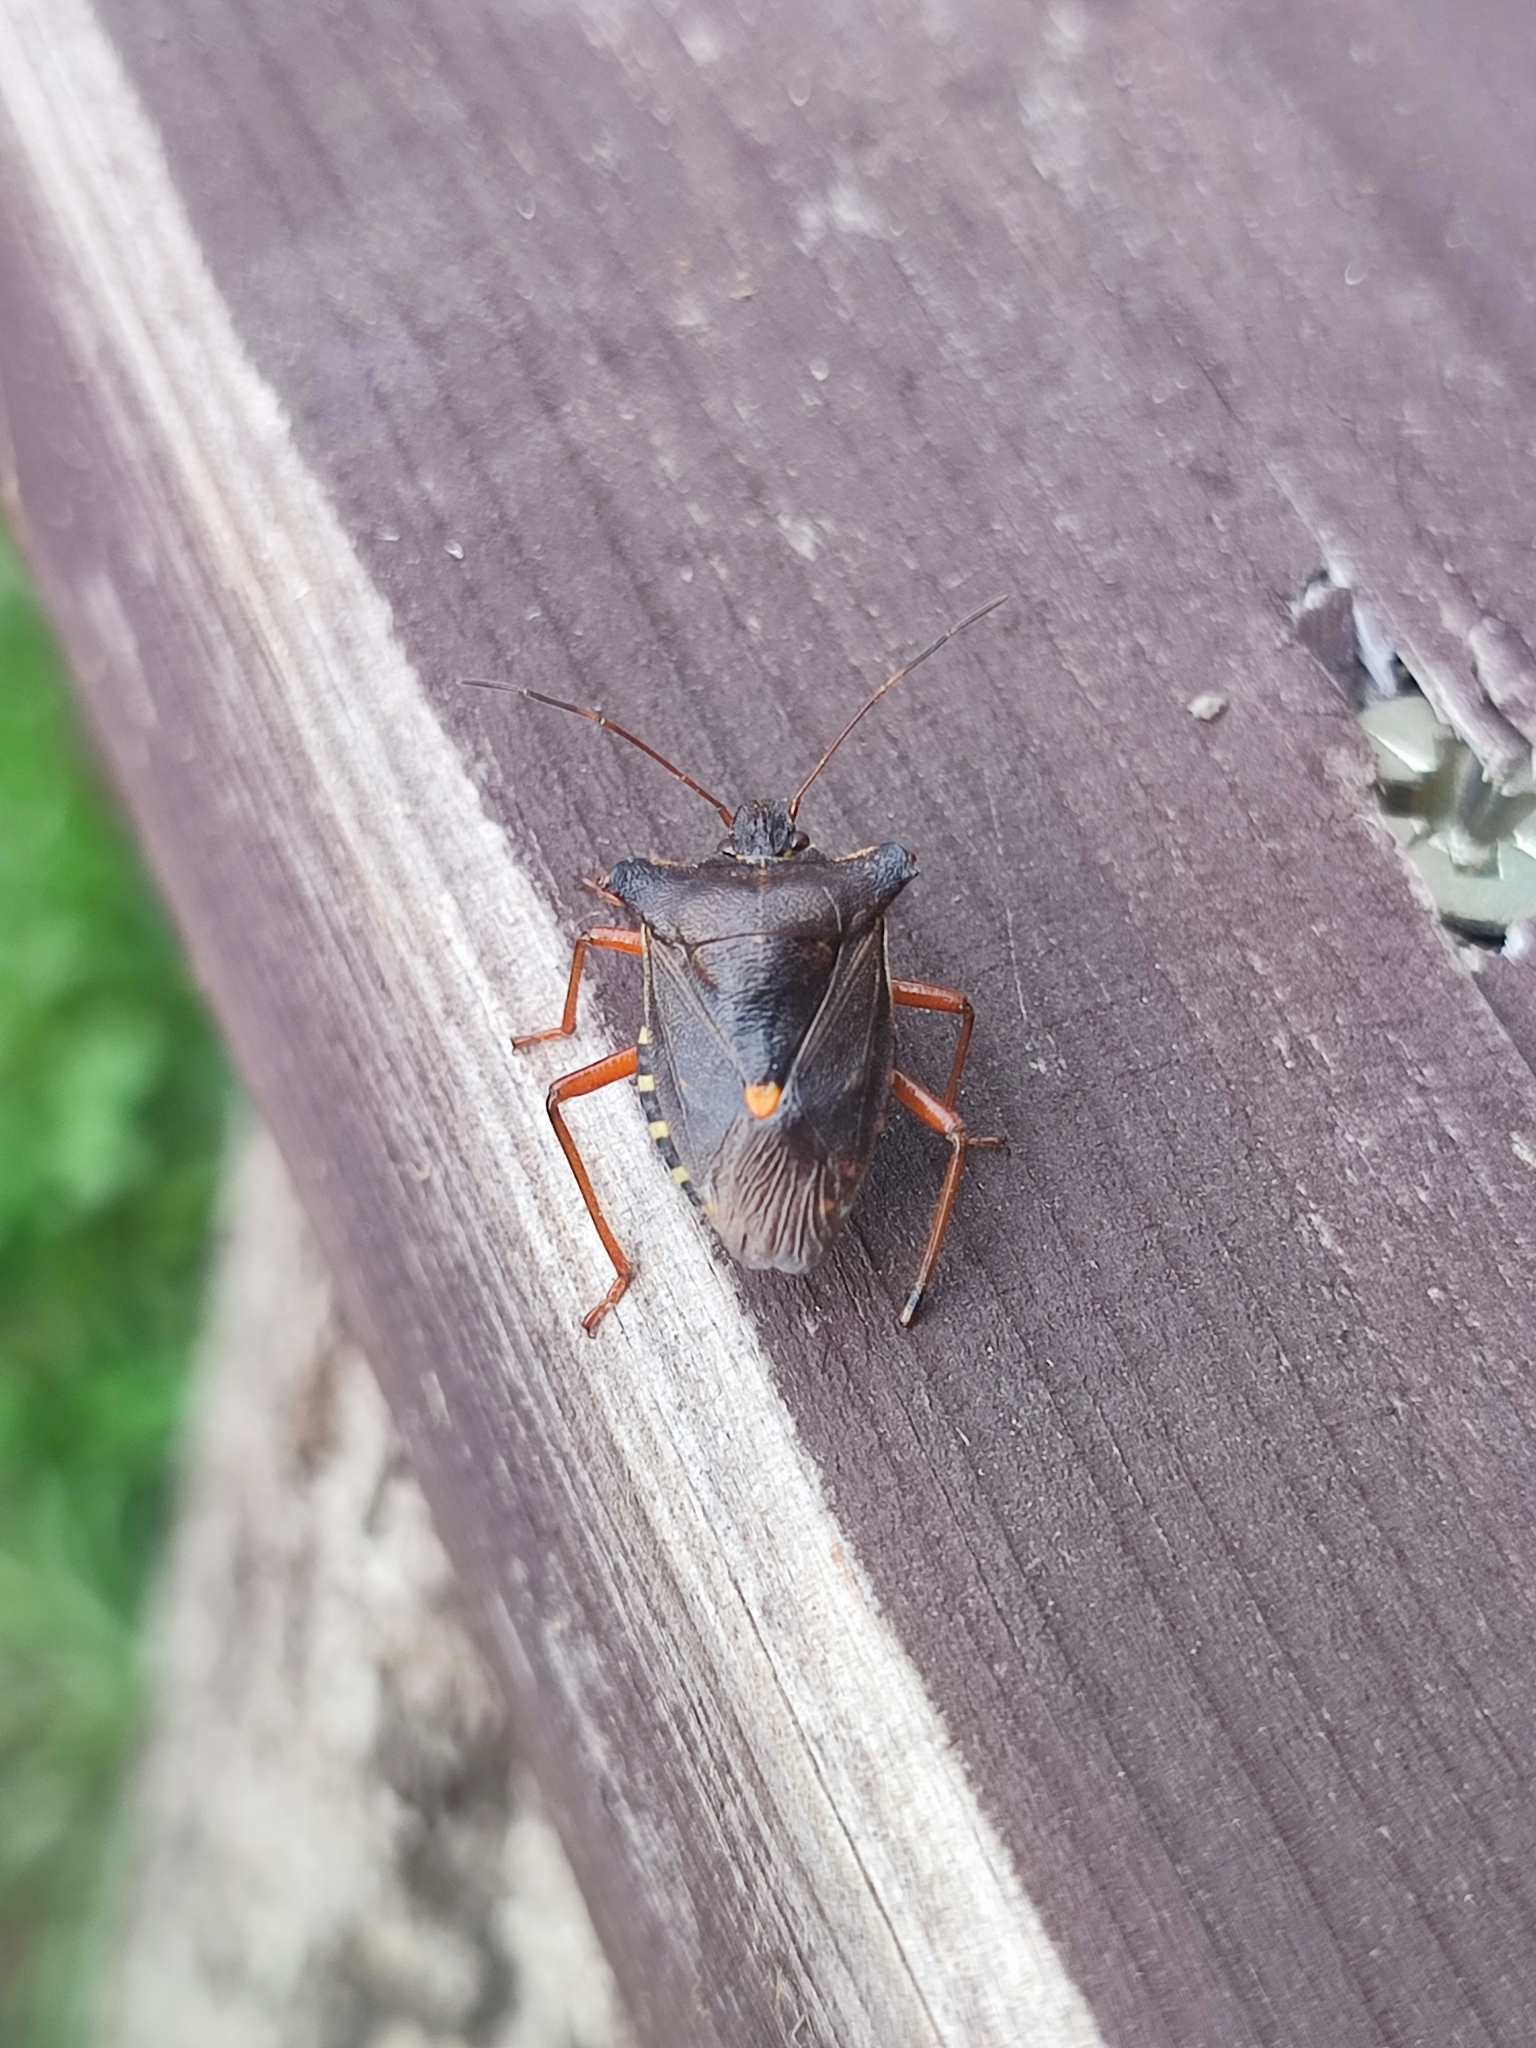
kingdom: Animalia
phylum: Arthropoda
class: Insecta
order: Hemiptera
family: Pentatomidae
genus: Pentatoma
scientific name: Pentatoma rufipes
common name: Forest bug
